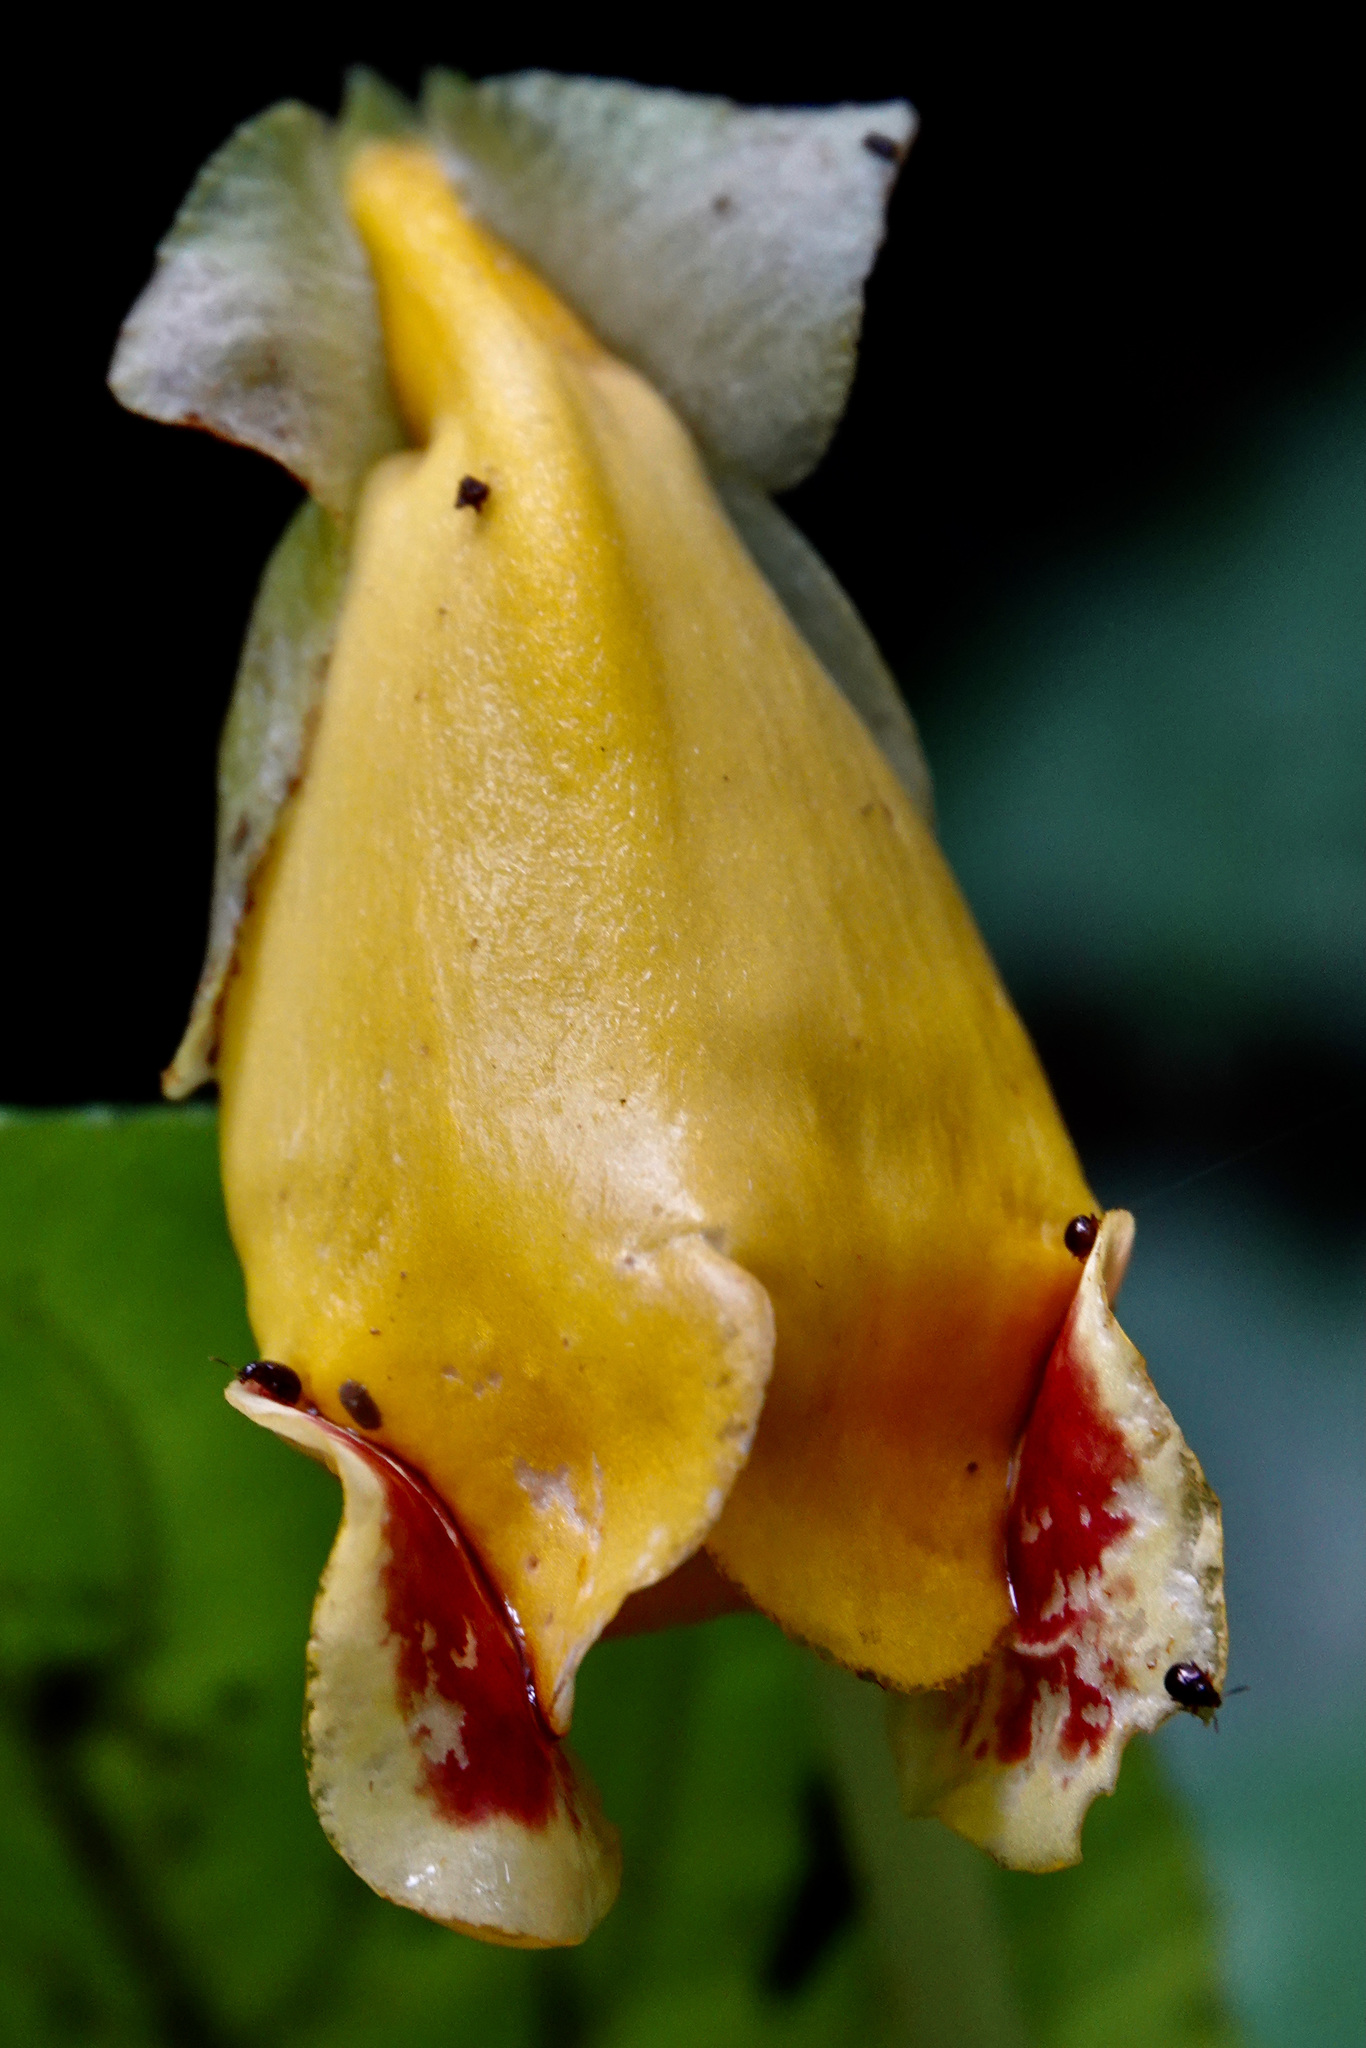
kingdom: Plantae
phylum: Tracheophyta
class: Magnoliopsida
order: Lamiales
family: Gesneriaceae
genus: Gasteranthus
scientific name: Gasteranthus delphinioides
